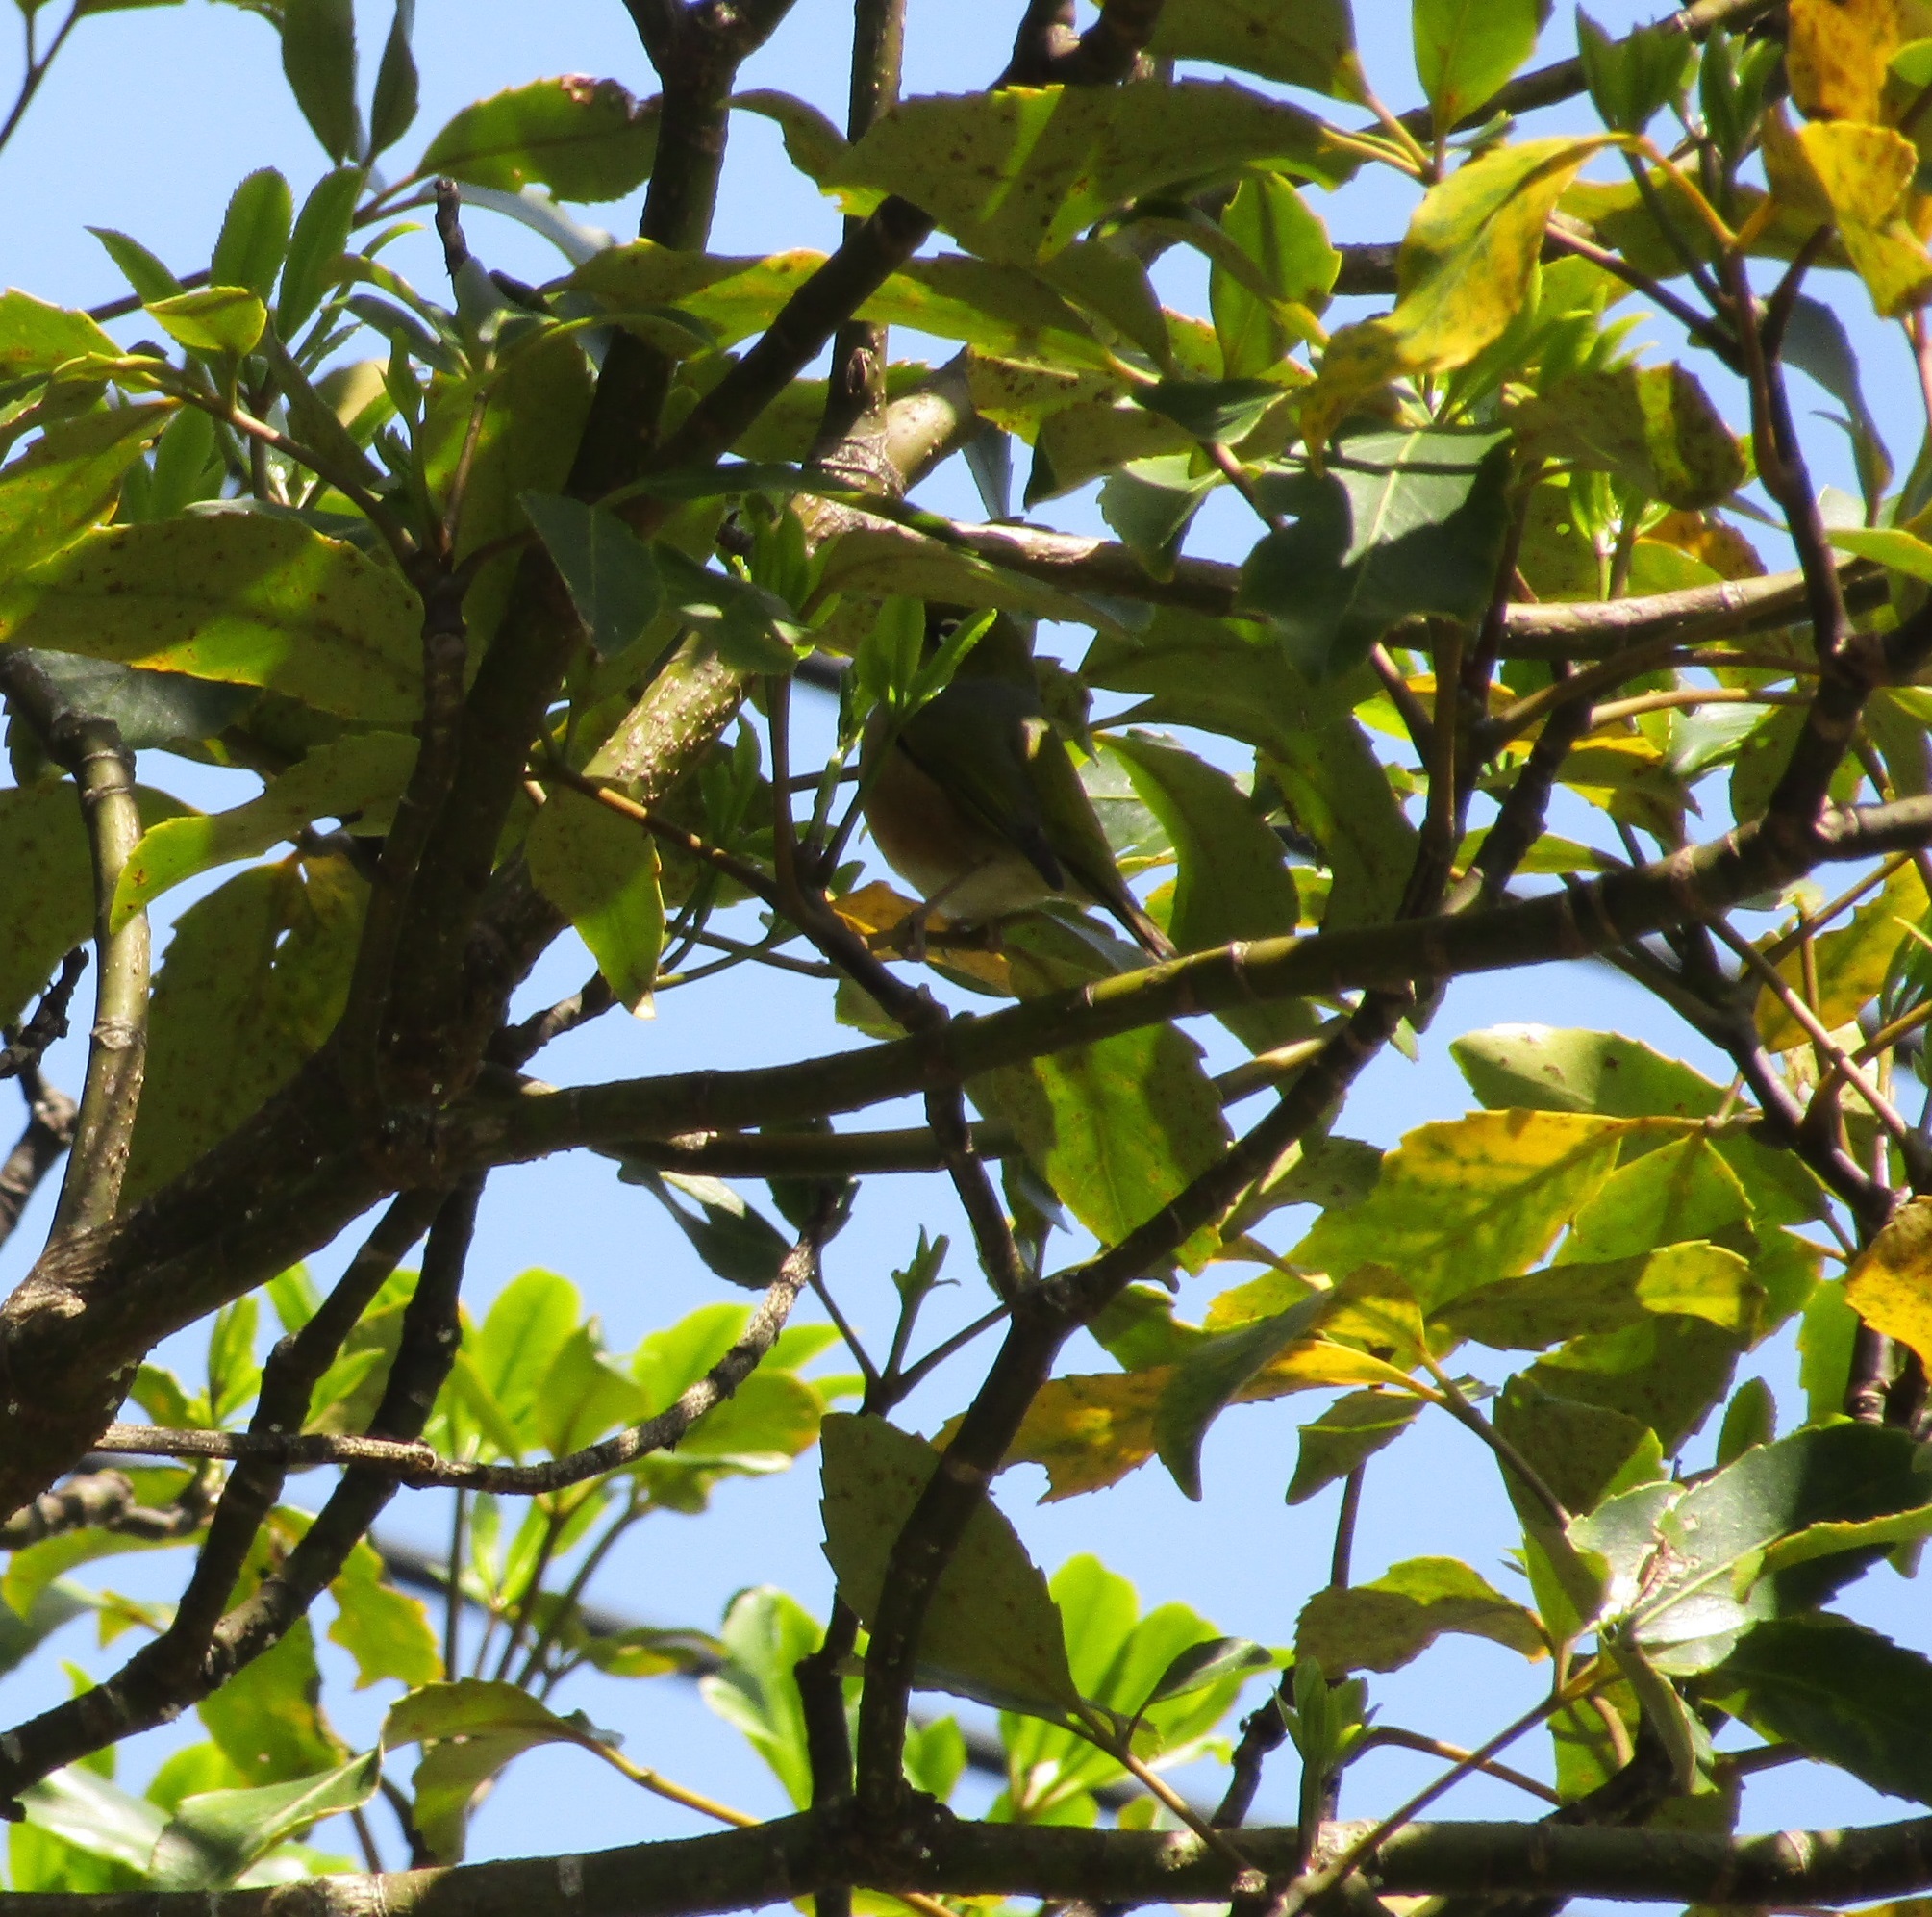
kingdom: Animalia
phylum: Chordata
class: Aves
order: Passeriformes
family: Zosteropidae
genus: Zosterops
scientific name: Zosterops lateralis
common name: Silvereye
